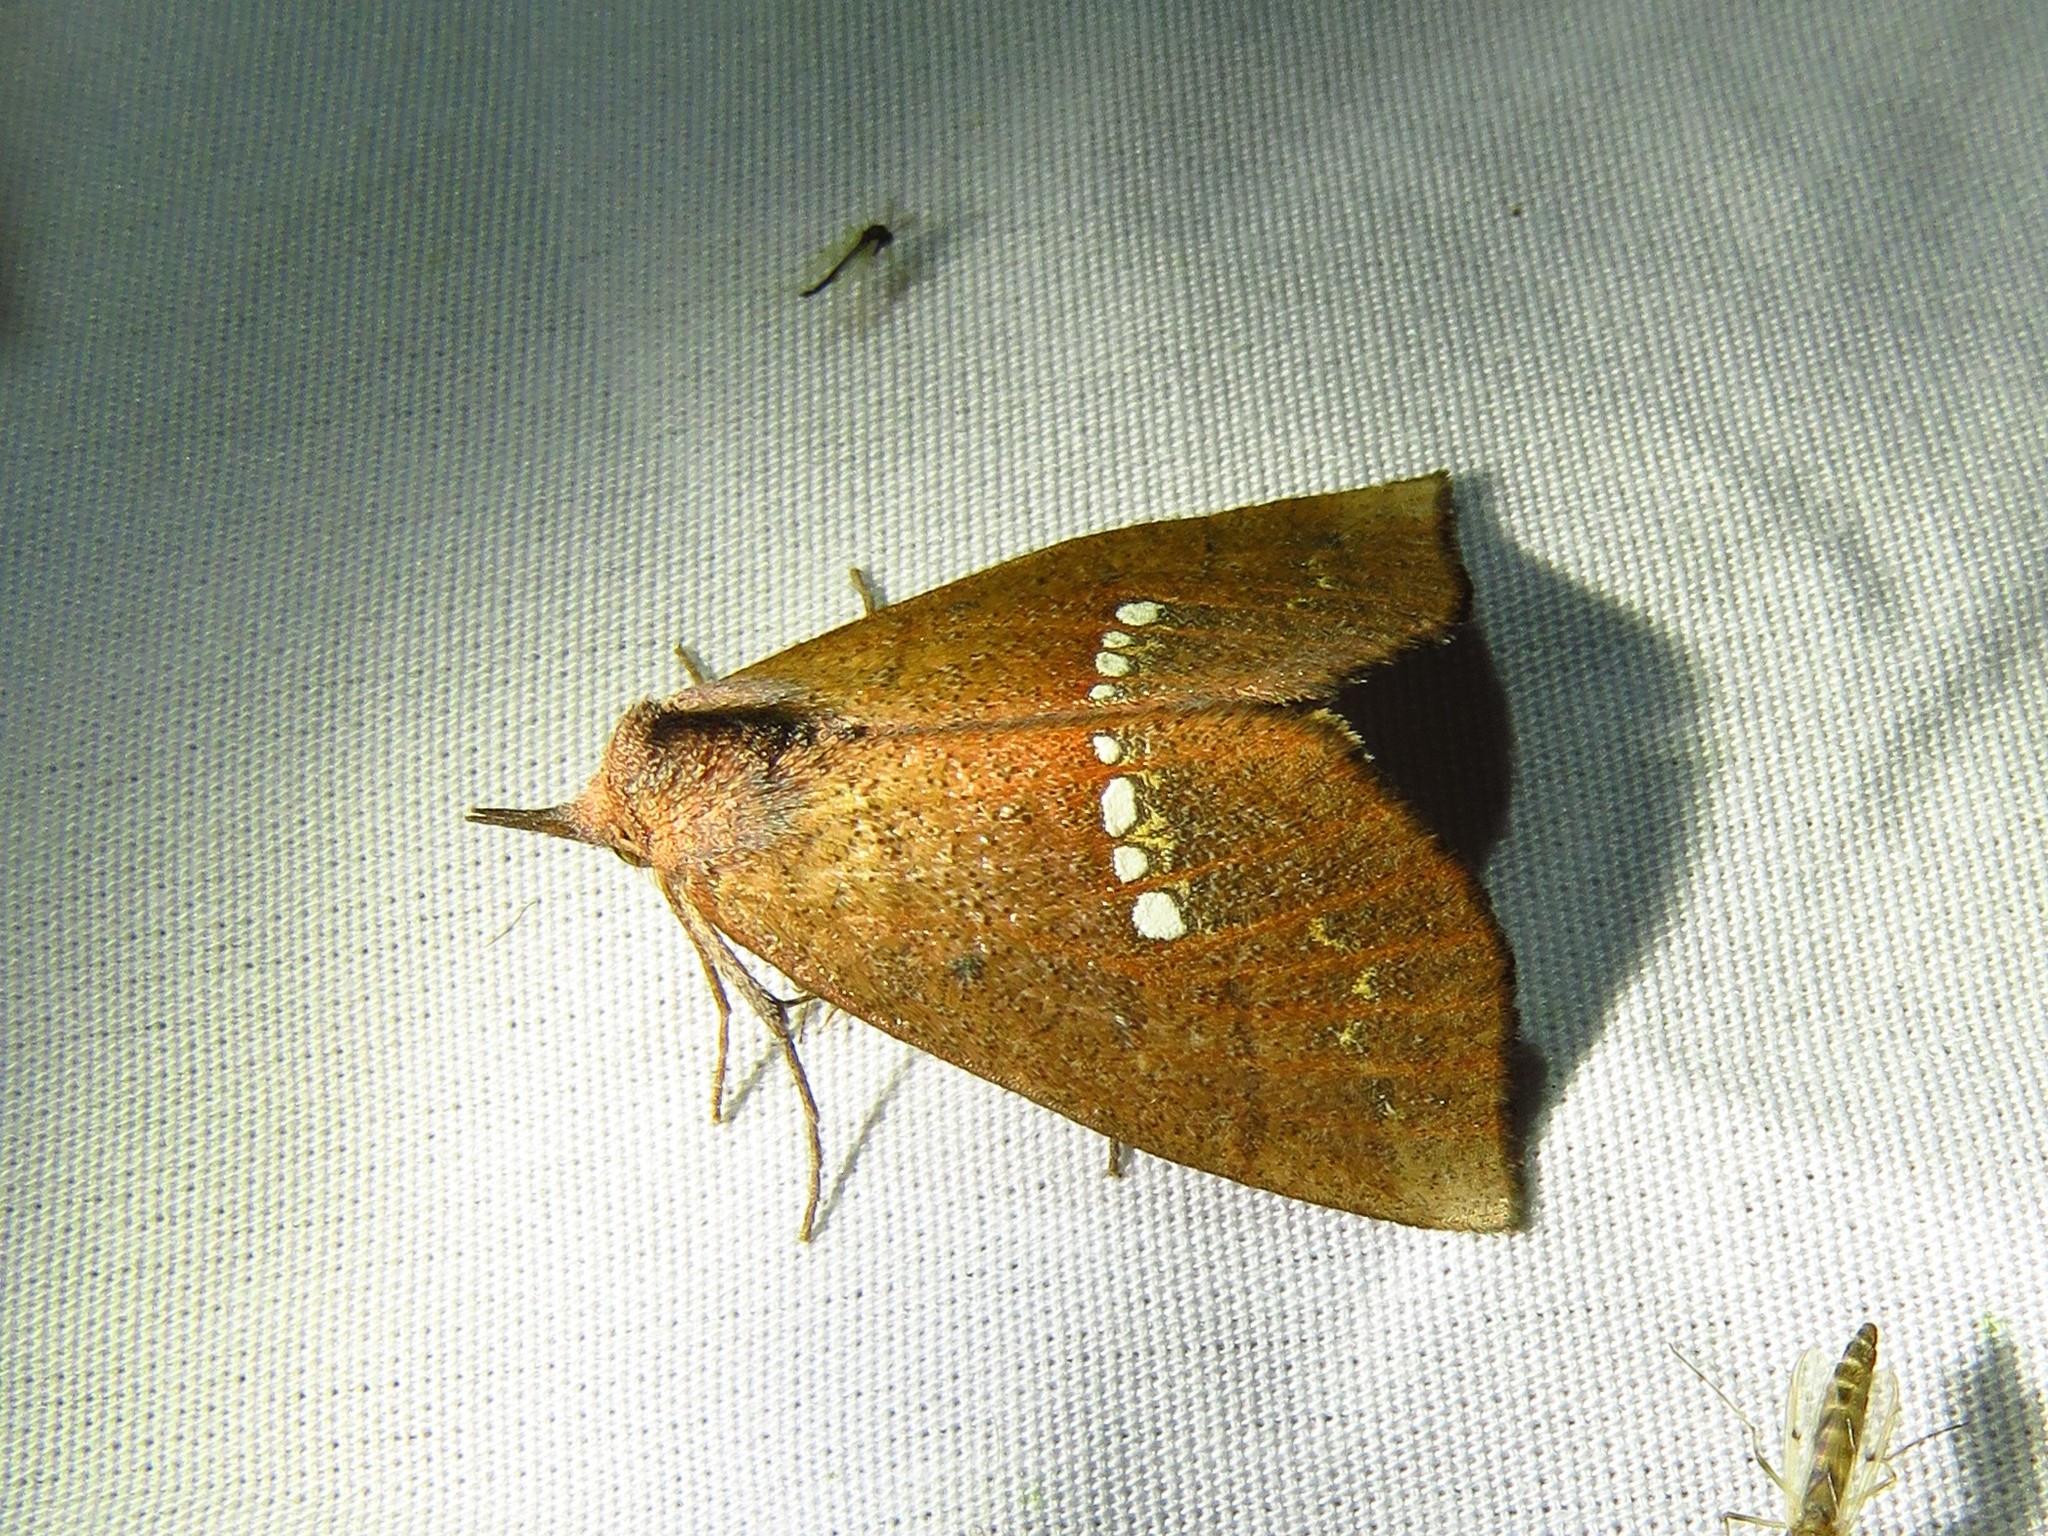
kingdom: Animalia
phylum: Arthropoda
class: Insecta
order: Lepidoptera
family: Erebidae
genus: Hypsoropha
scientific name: Hypsoropha monilis
